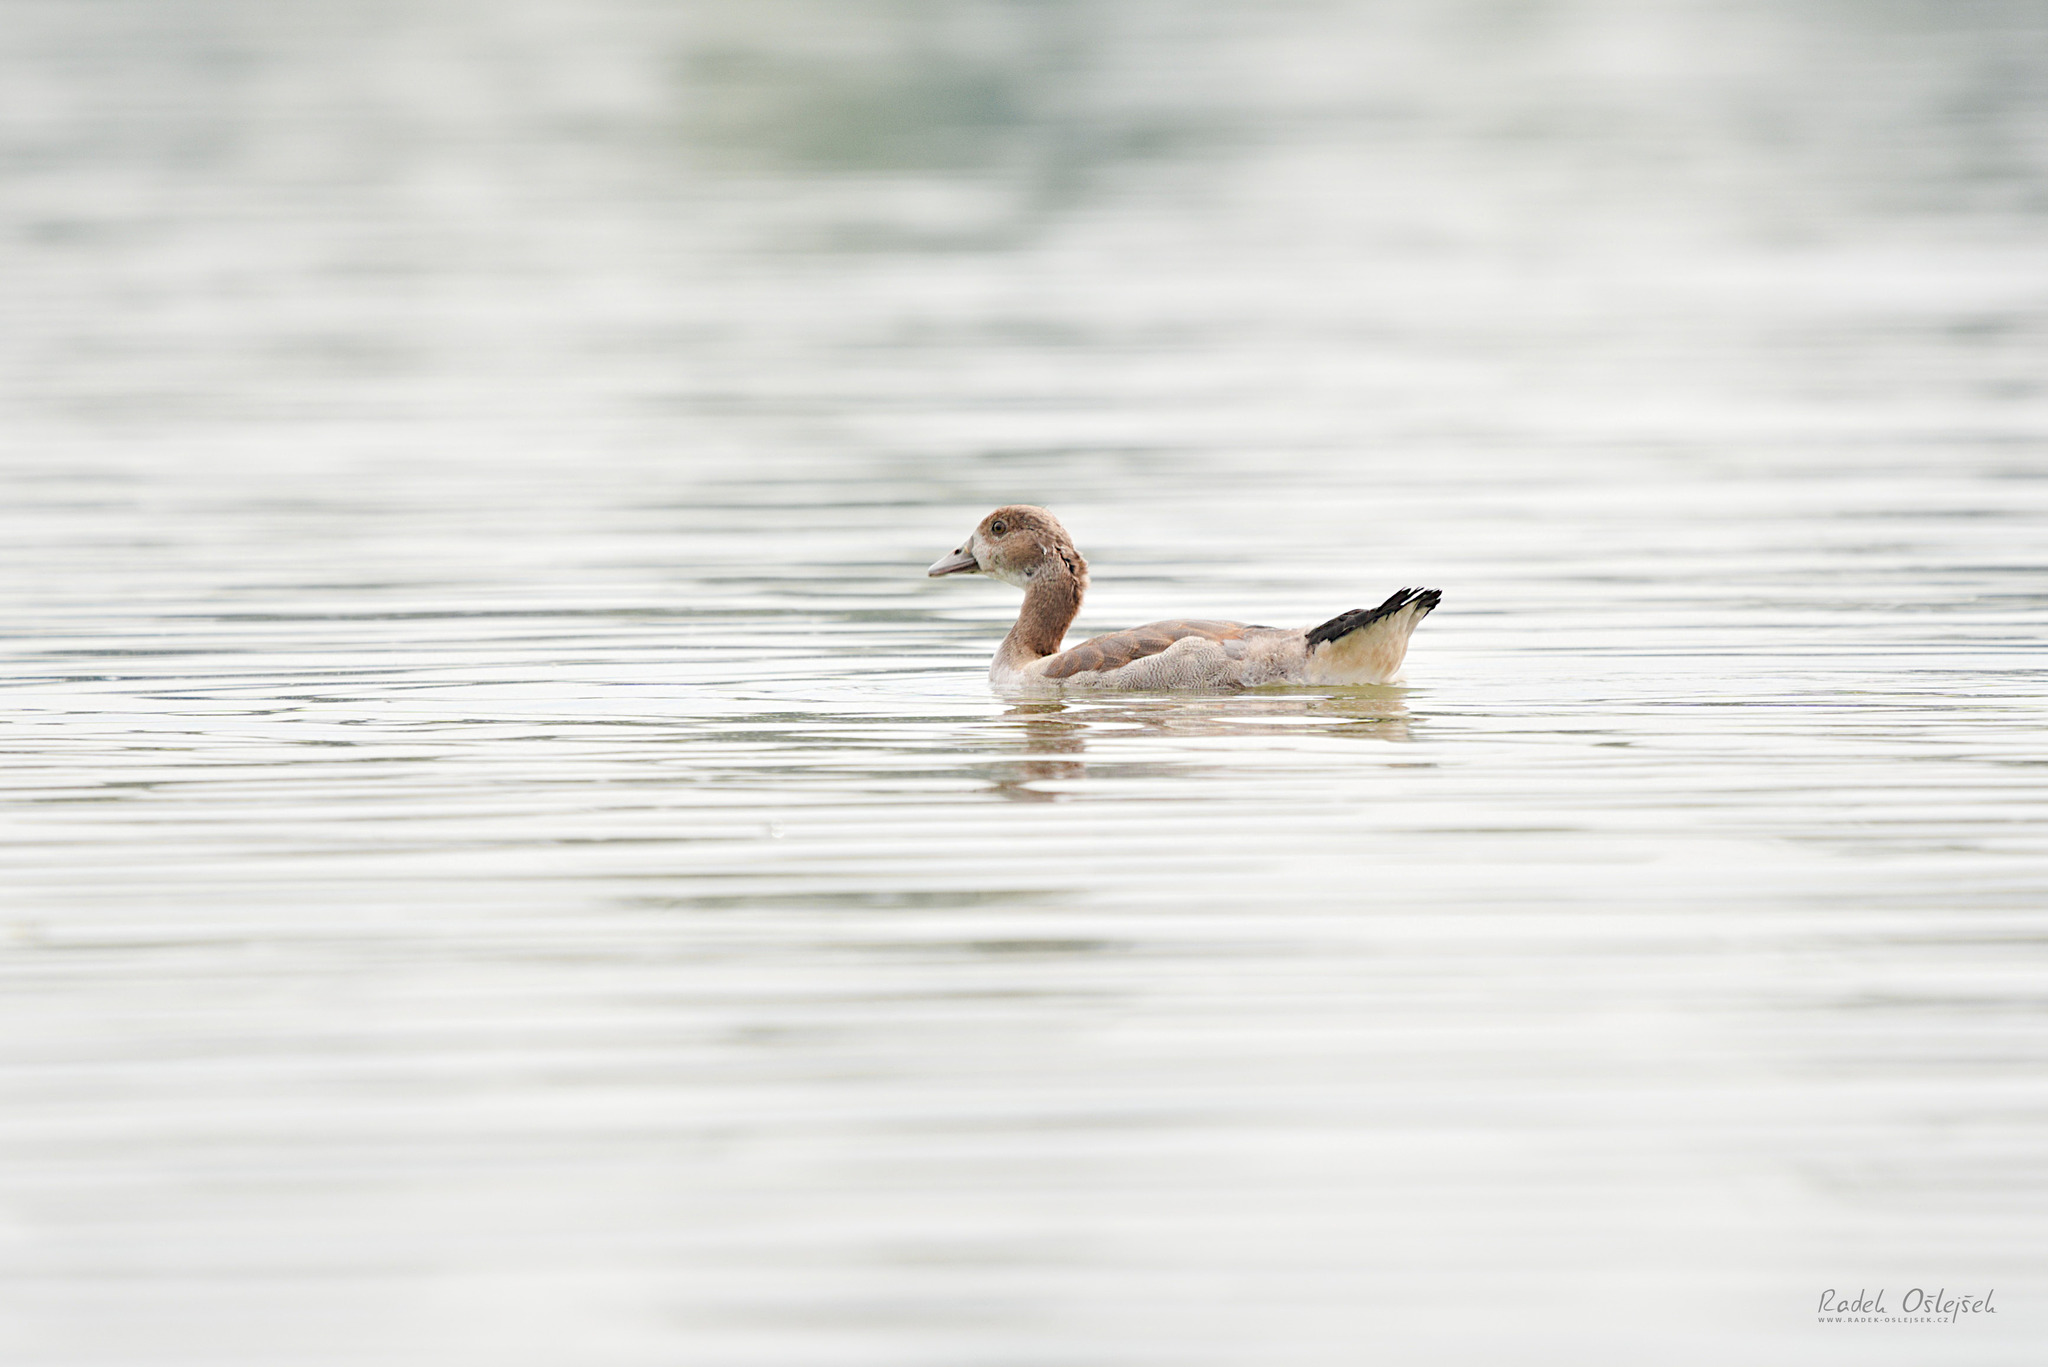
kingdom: Animalia
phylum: Chordata
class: Aves
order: Anseriformes
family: Anatidae
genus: Alopochen
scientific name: Alopochen aegyptiaca
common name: Egyptian goose
